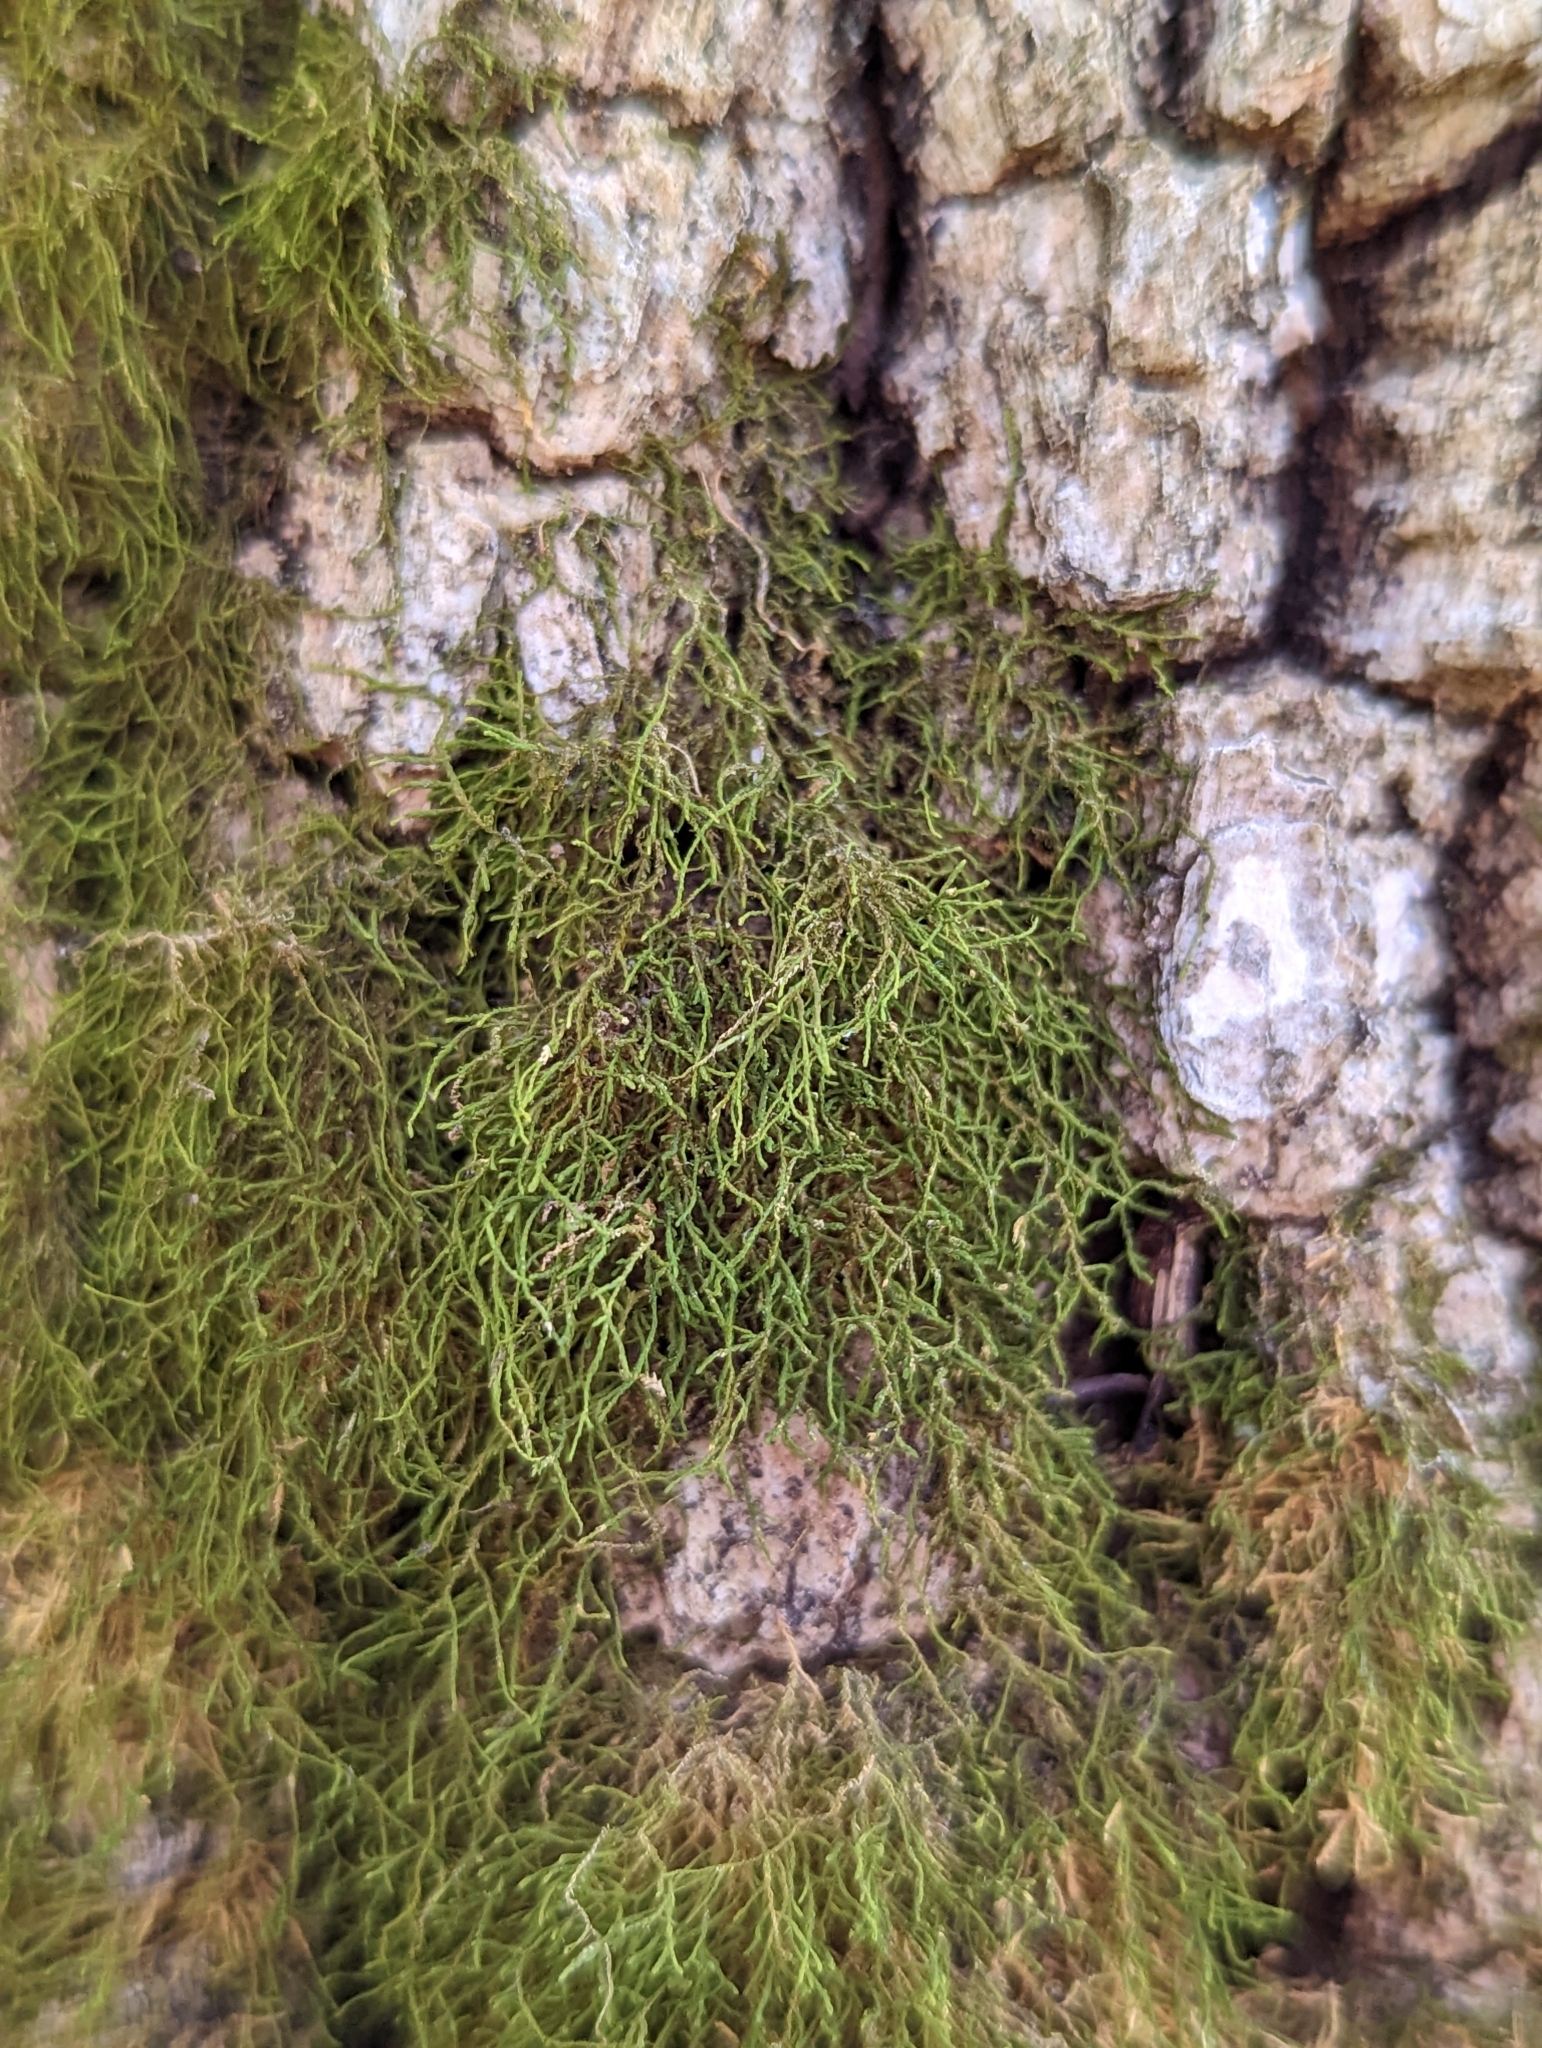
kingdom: Plantae
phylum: Bryophyta
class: Bryopsida
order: Hypnales
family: Anomodontaceae
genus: Haplohymenium
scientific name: Haplohymenium triste
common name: Fragile anomodon
